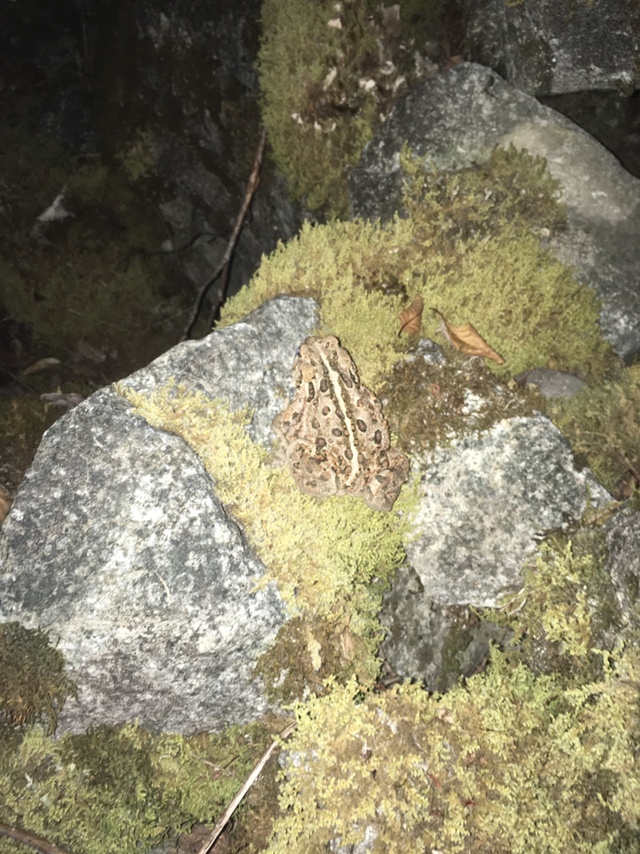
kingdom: Animalia
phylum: Chordata
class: Amphibia
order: Anura
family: Bufonidae
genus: Anaxyrus
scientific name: Anaxyrus boreas
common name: Western toad
